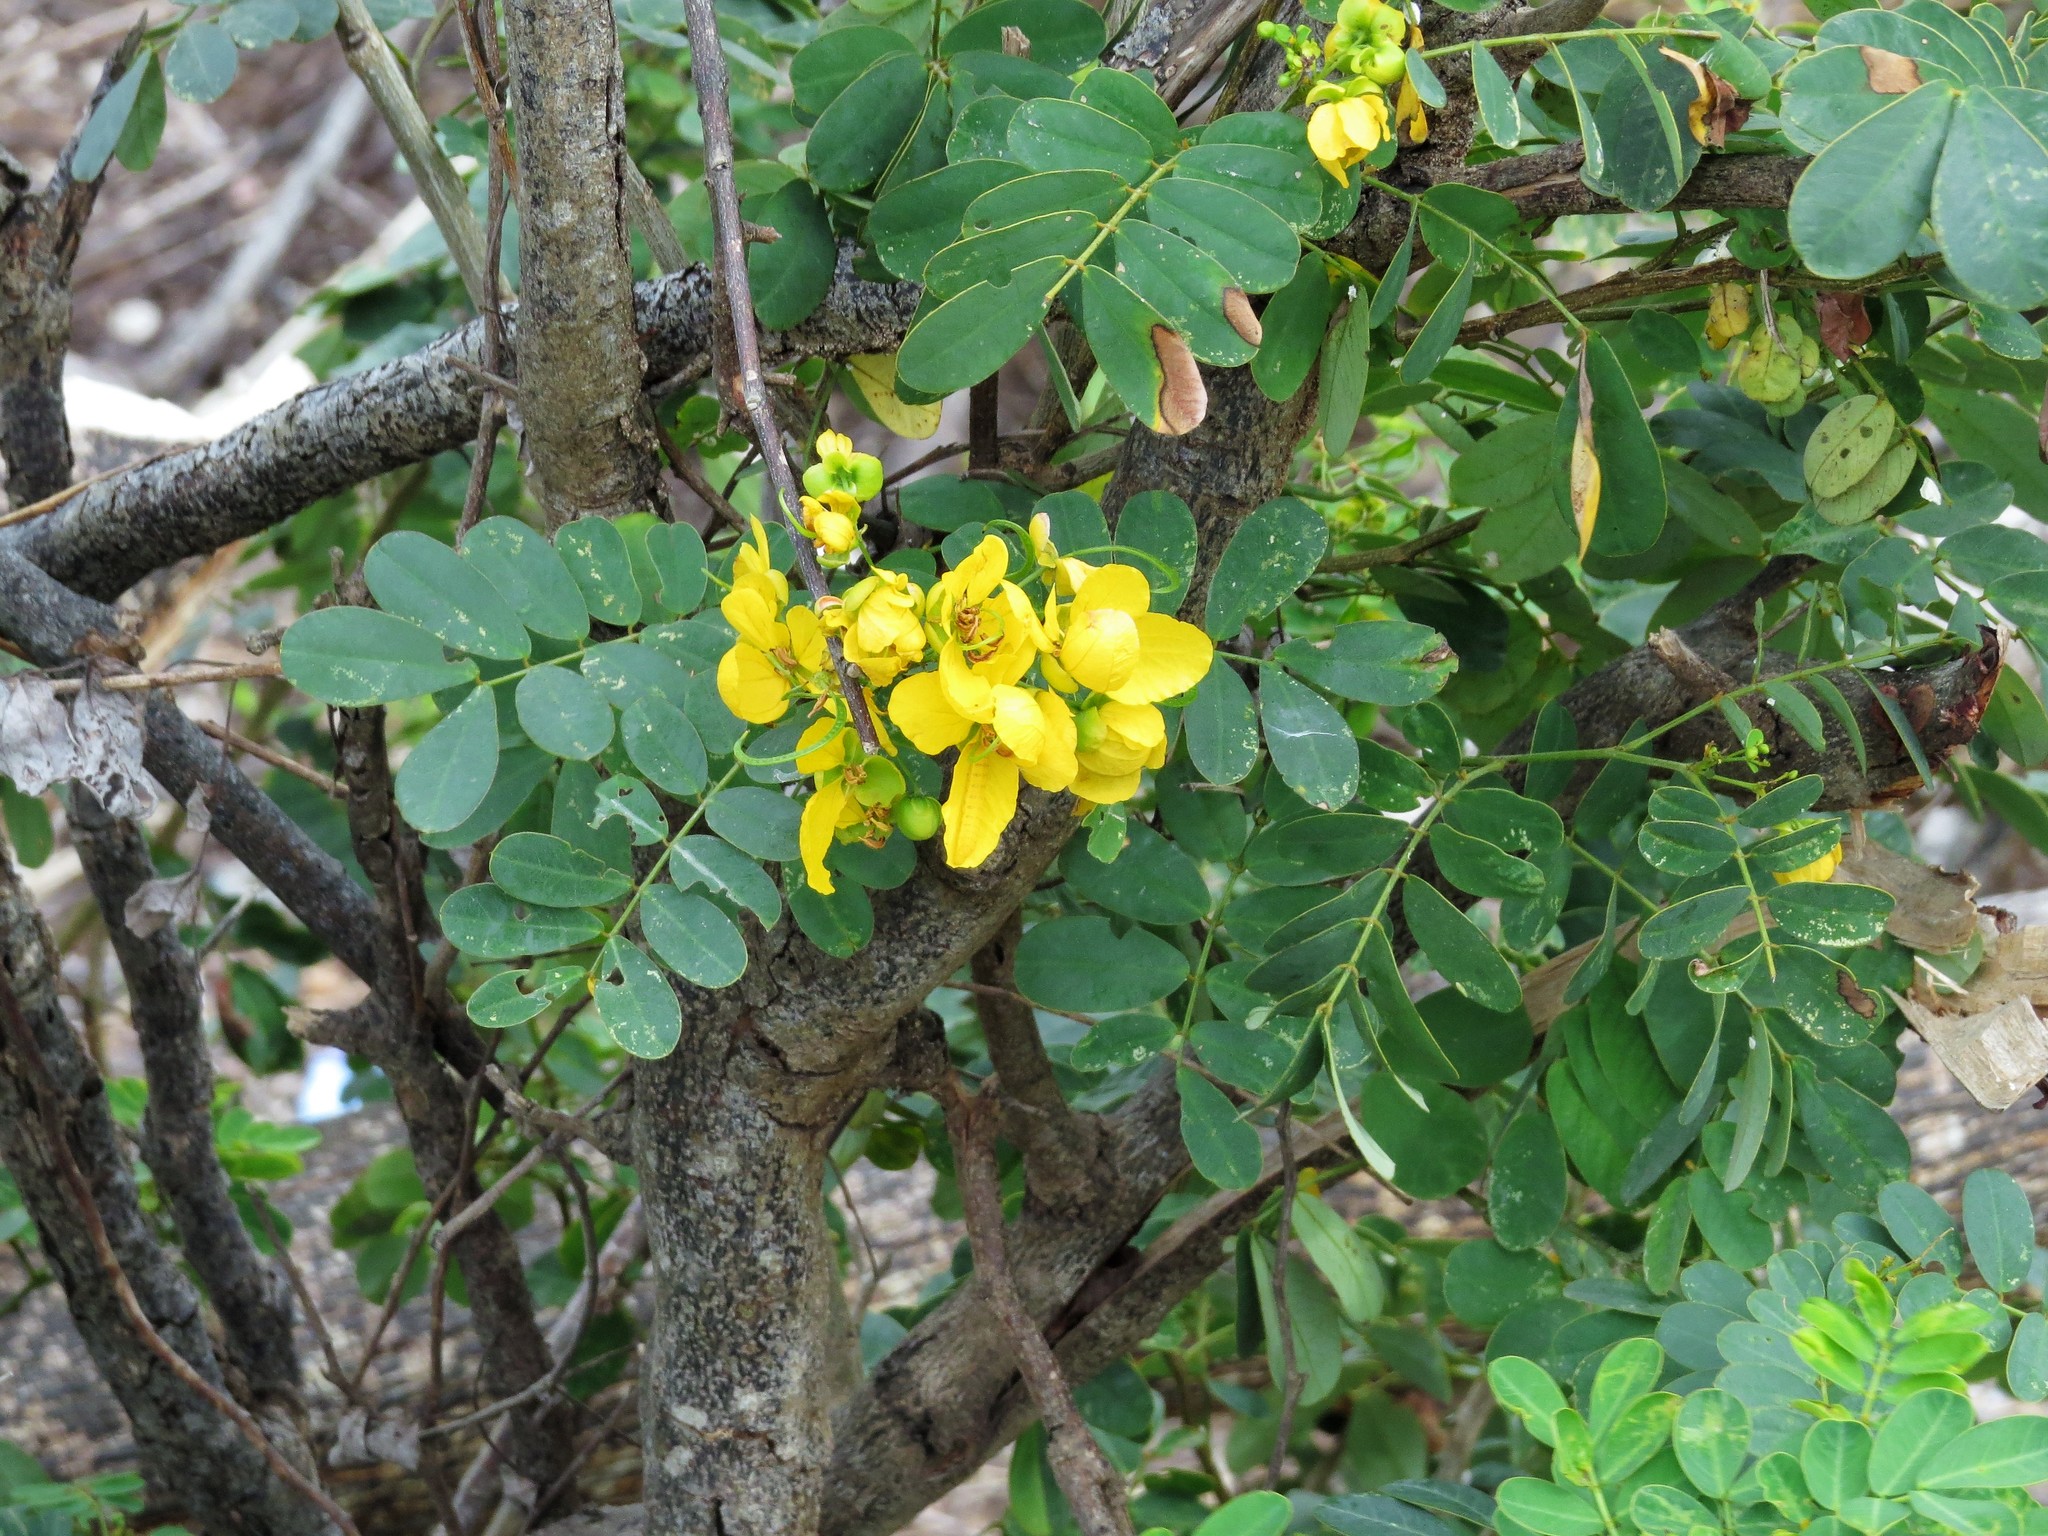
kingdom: Plantae
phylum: Tracheophyta
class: Magnoliopsida
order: Fabales
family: Fabaceae
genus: Senna
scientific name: Senna pallida
